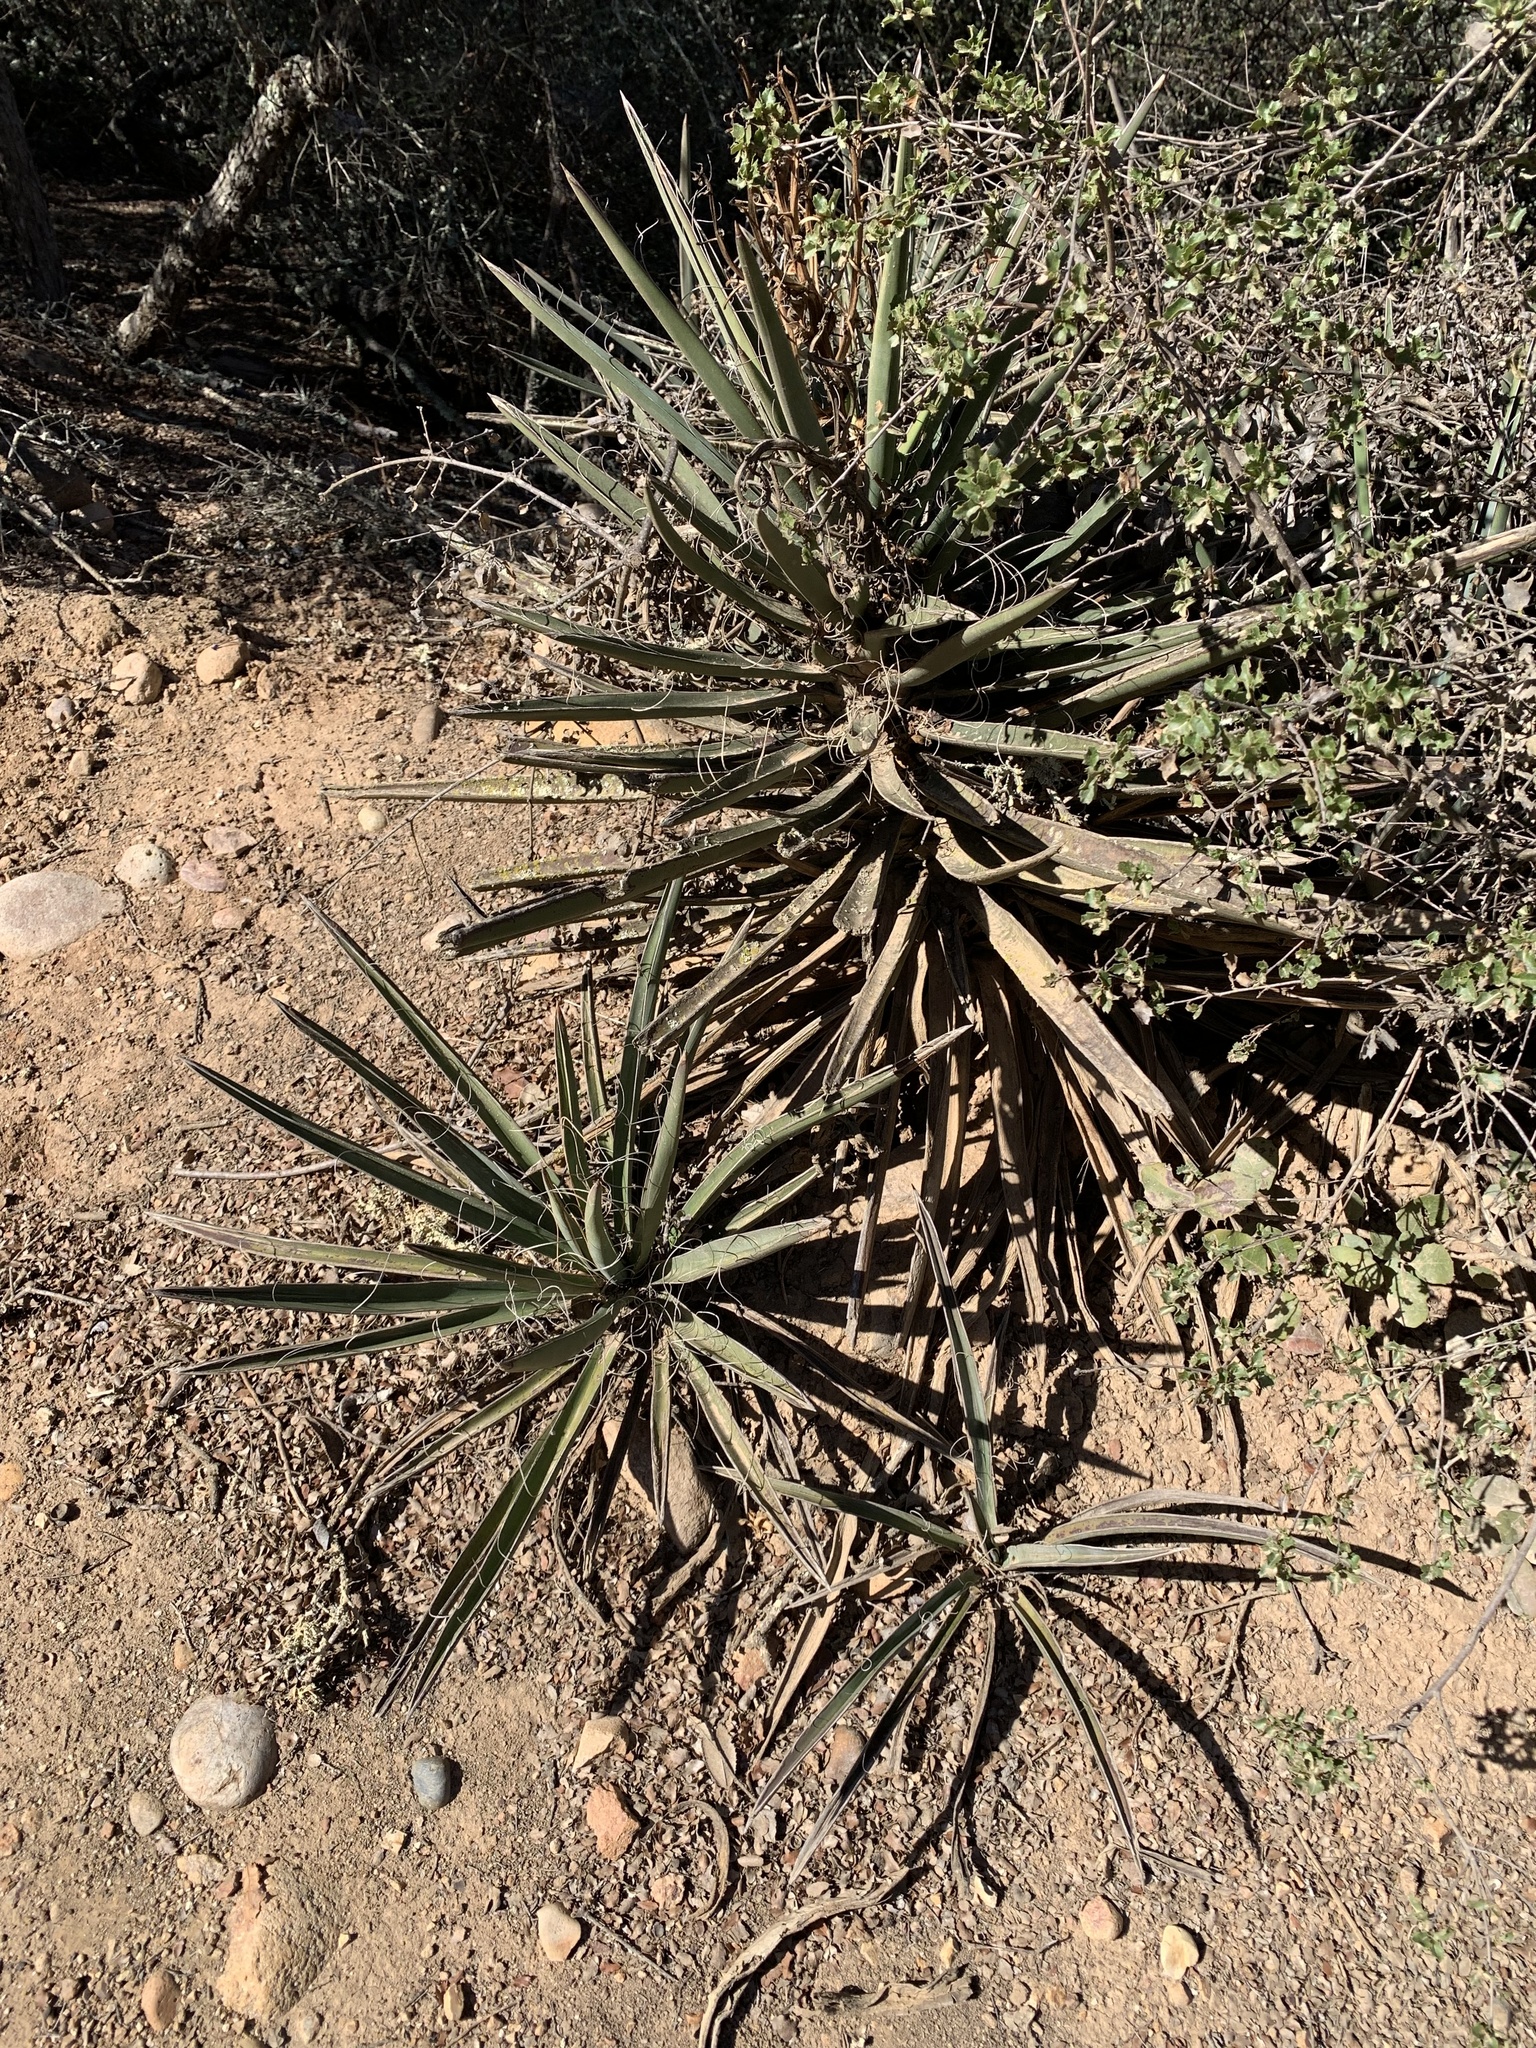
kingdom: Plantae
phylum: Tracheophyta
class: Liliopsida
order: Asparagales
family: Asparagaceae
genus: Yucca
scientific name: Yucca schidigera
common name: Mojave yucca
